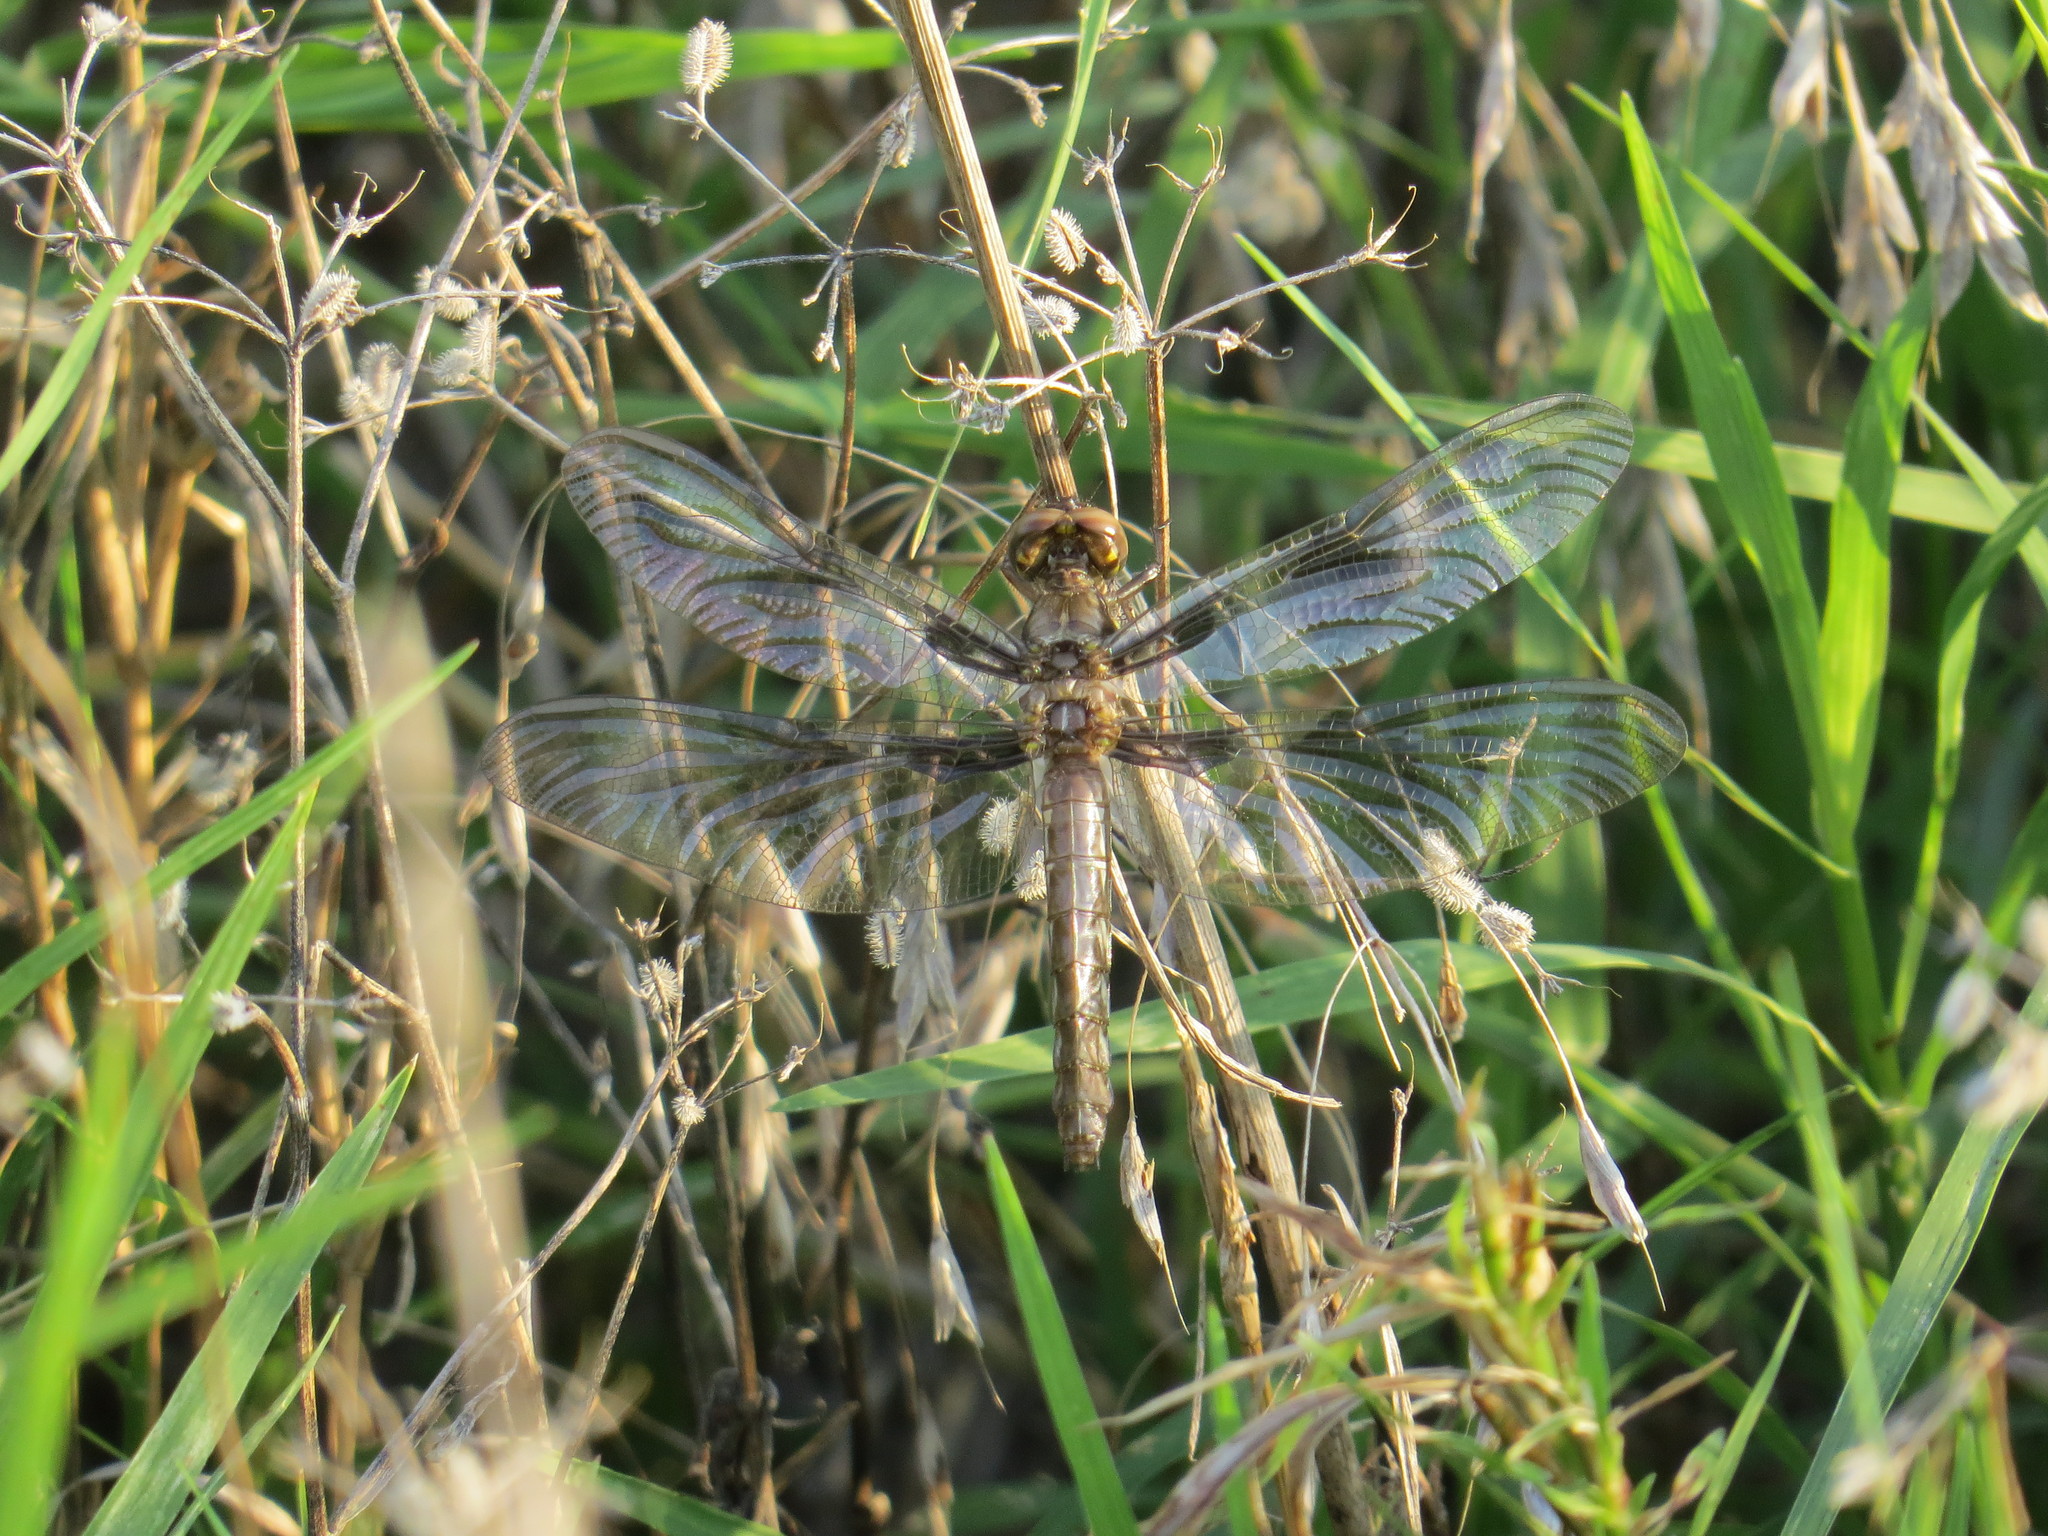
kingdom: Animalia
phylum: Arthropoda
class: Insecta
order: Odonata
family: Libellulidae
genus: Plathemis
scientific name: Plathemis lydia
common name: Common whitetail
